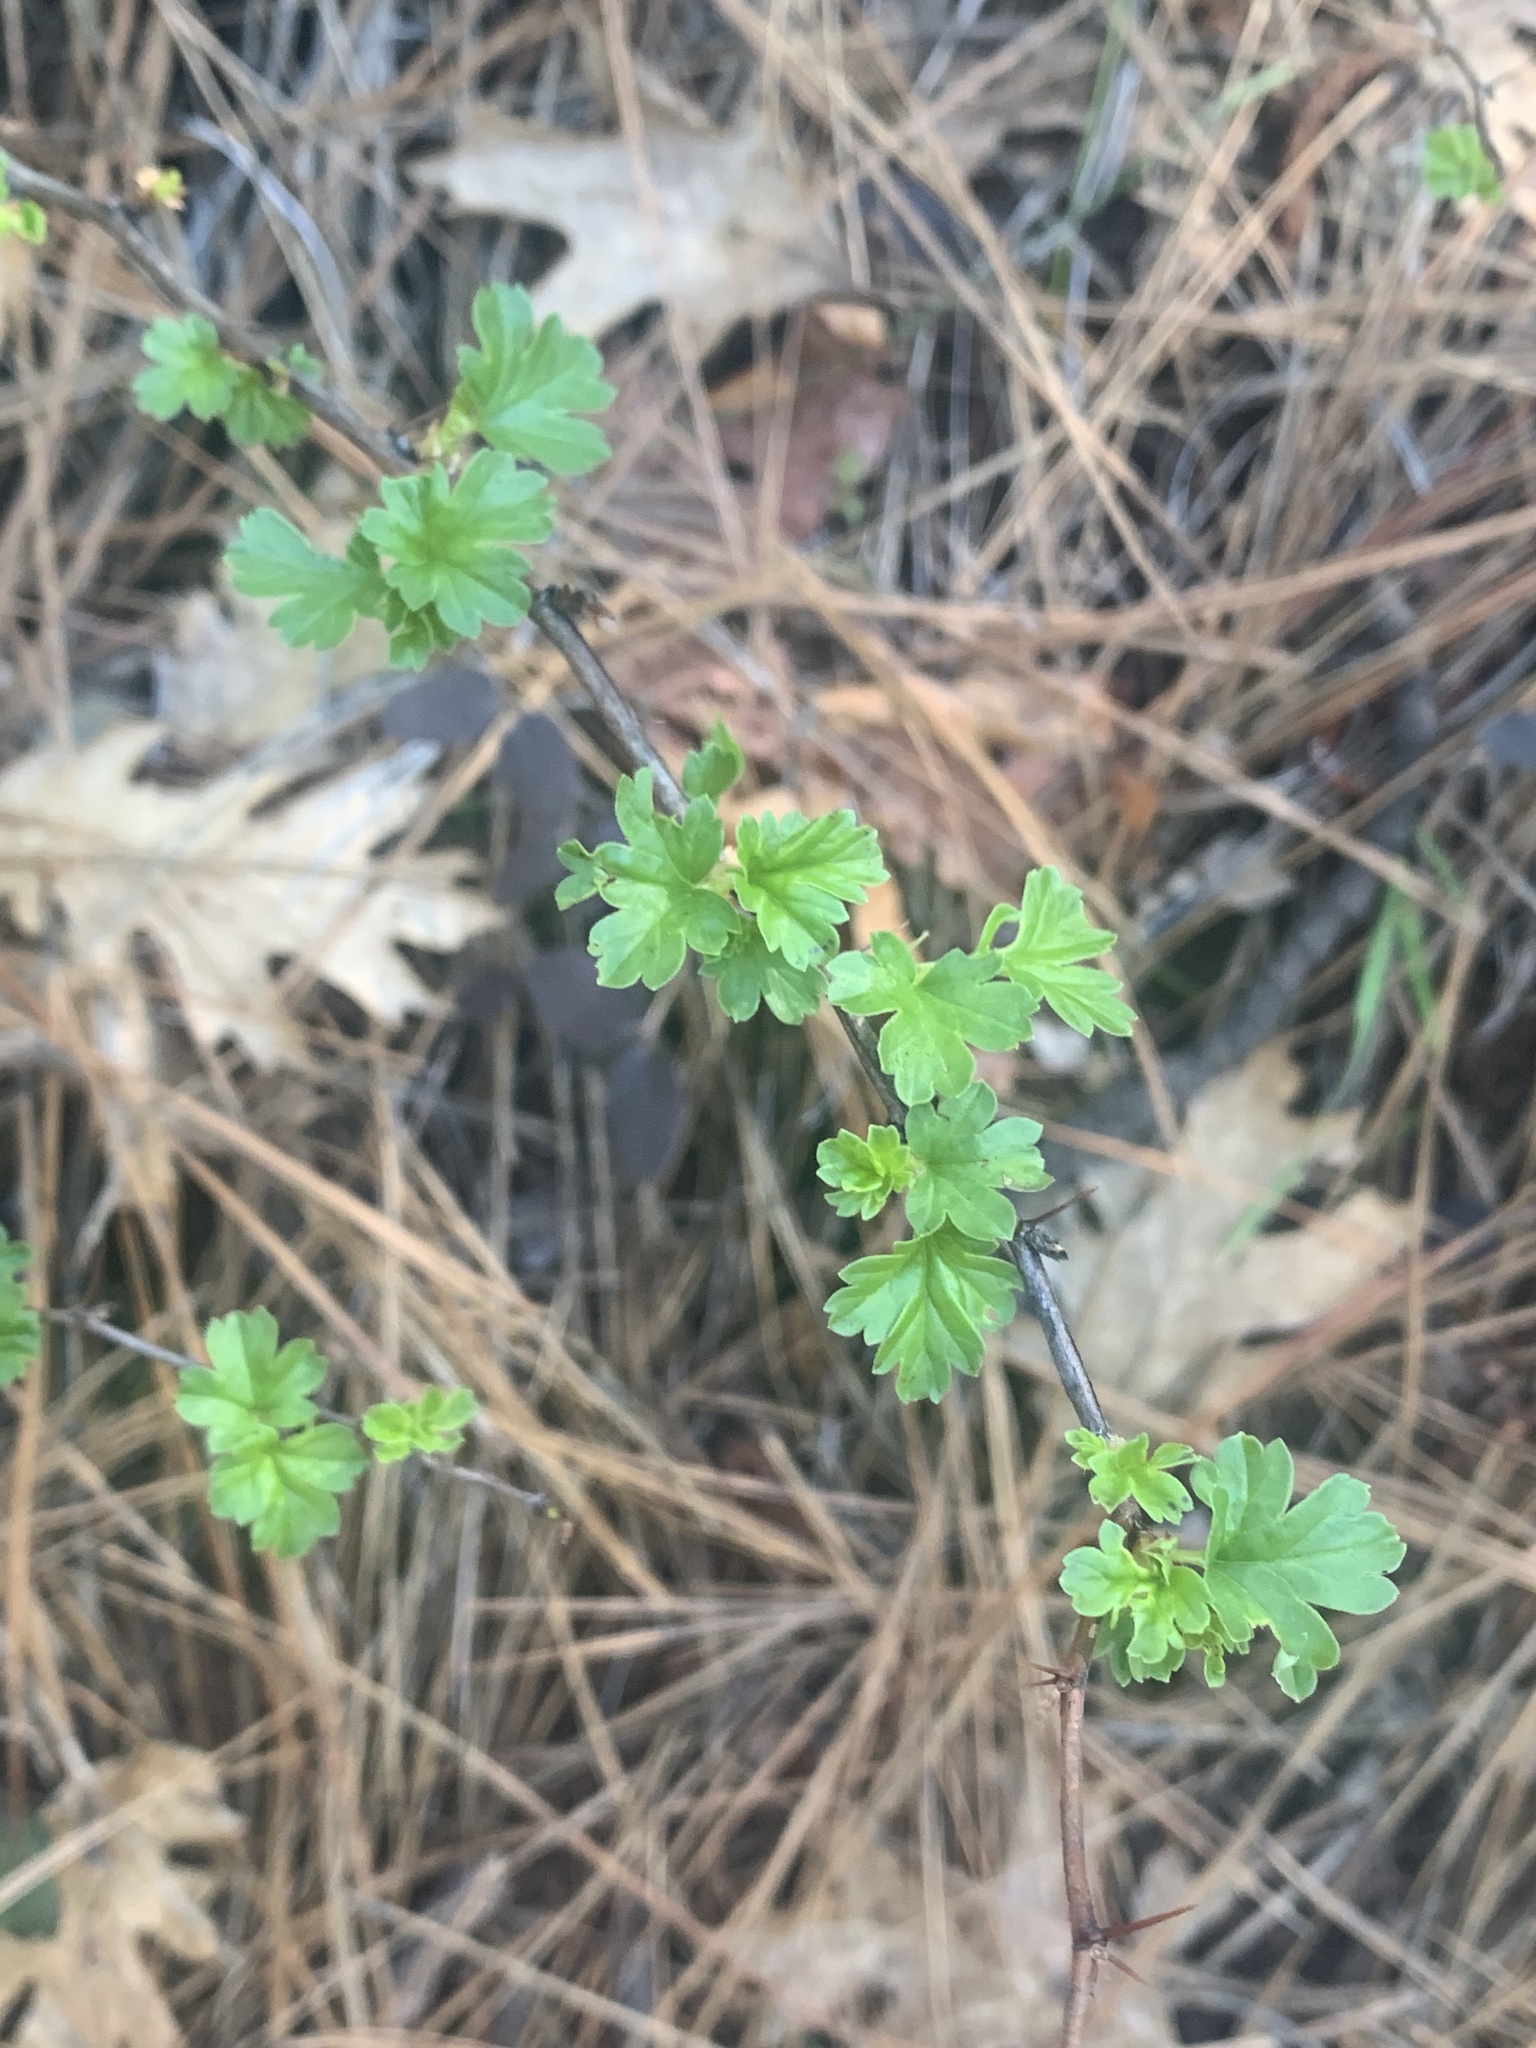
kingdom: Plantae
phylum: Tracheophyta
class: Magnoliopsida
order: Saxifragales
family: Grossulariaceae
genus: Ribes
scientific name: Ribes roezlii
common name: Sierra gooseberry
